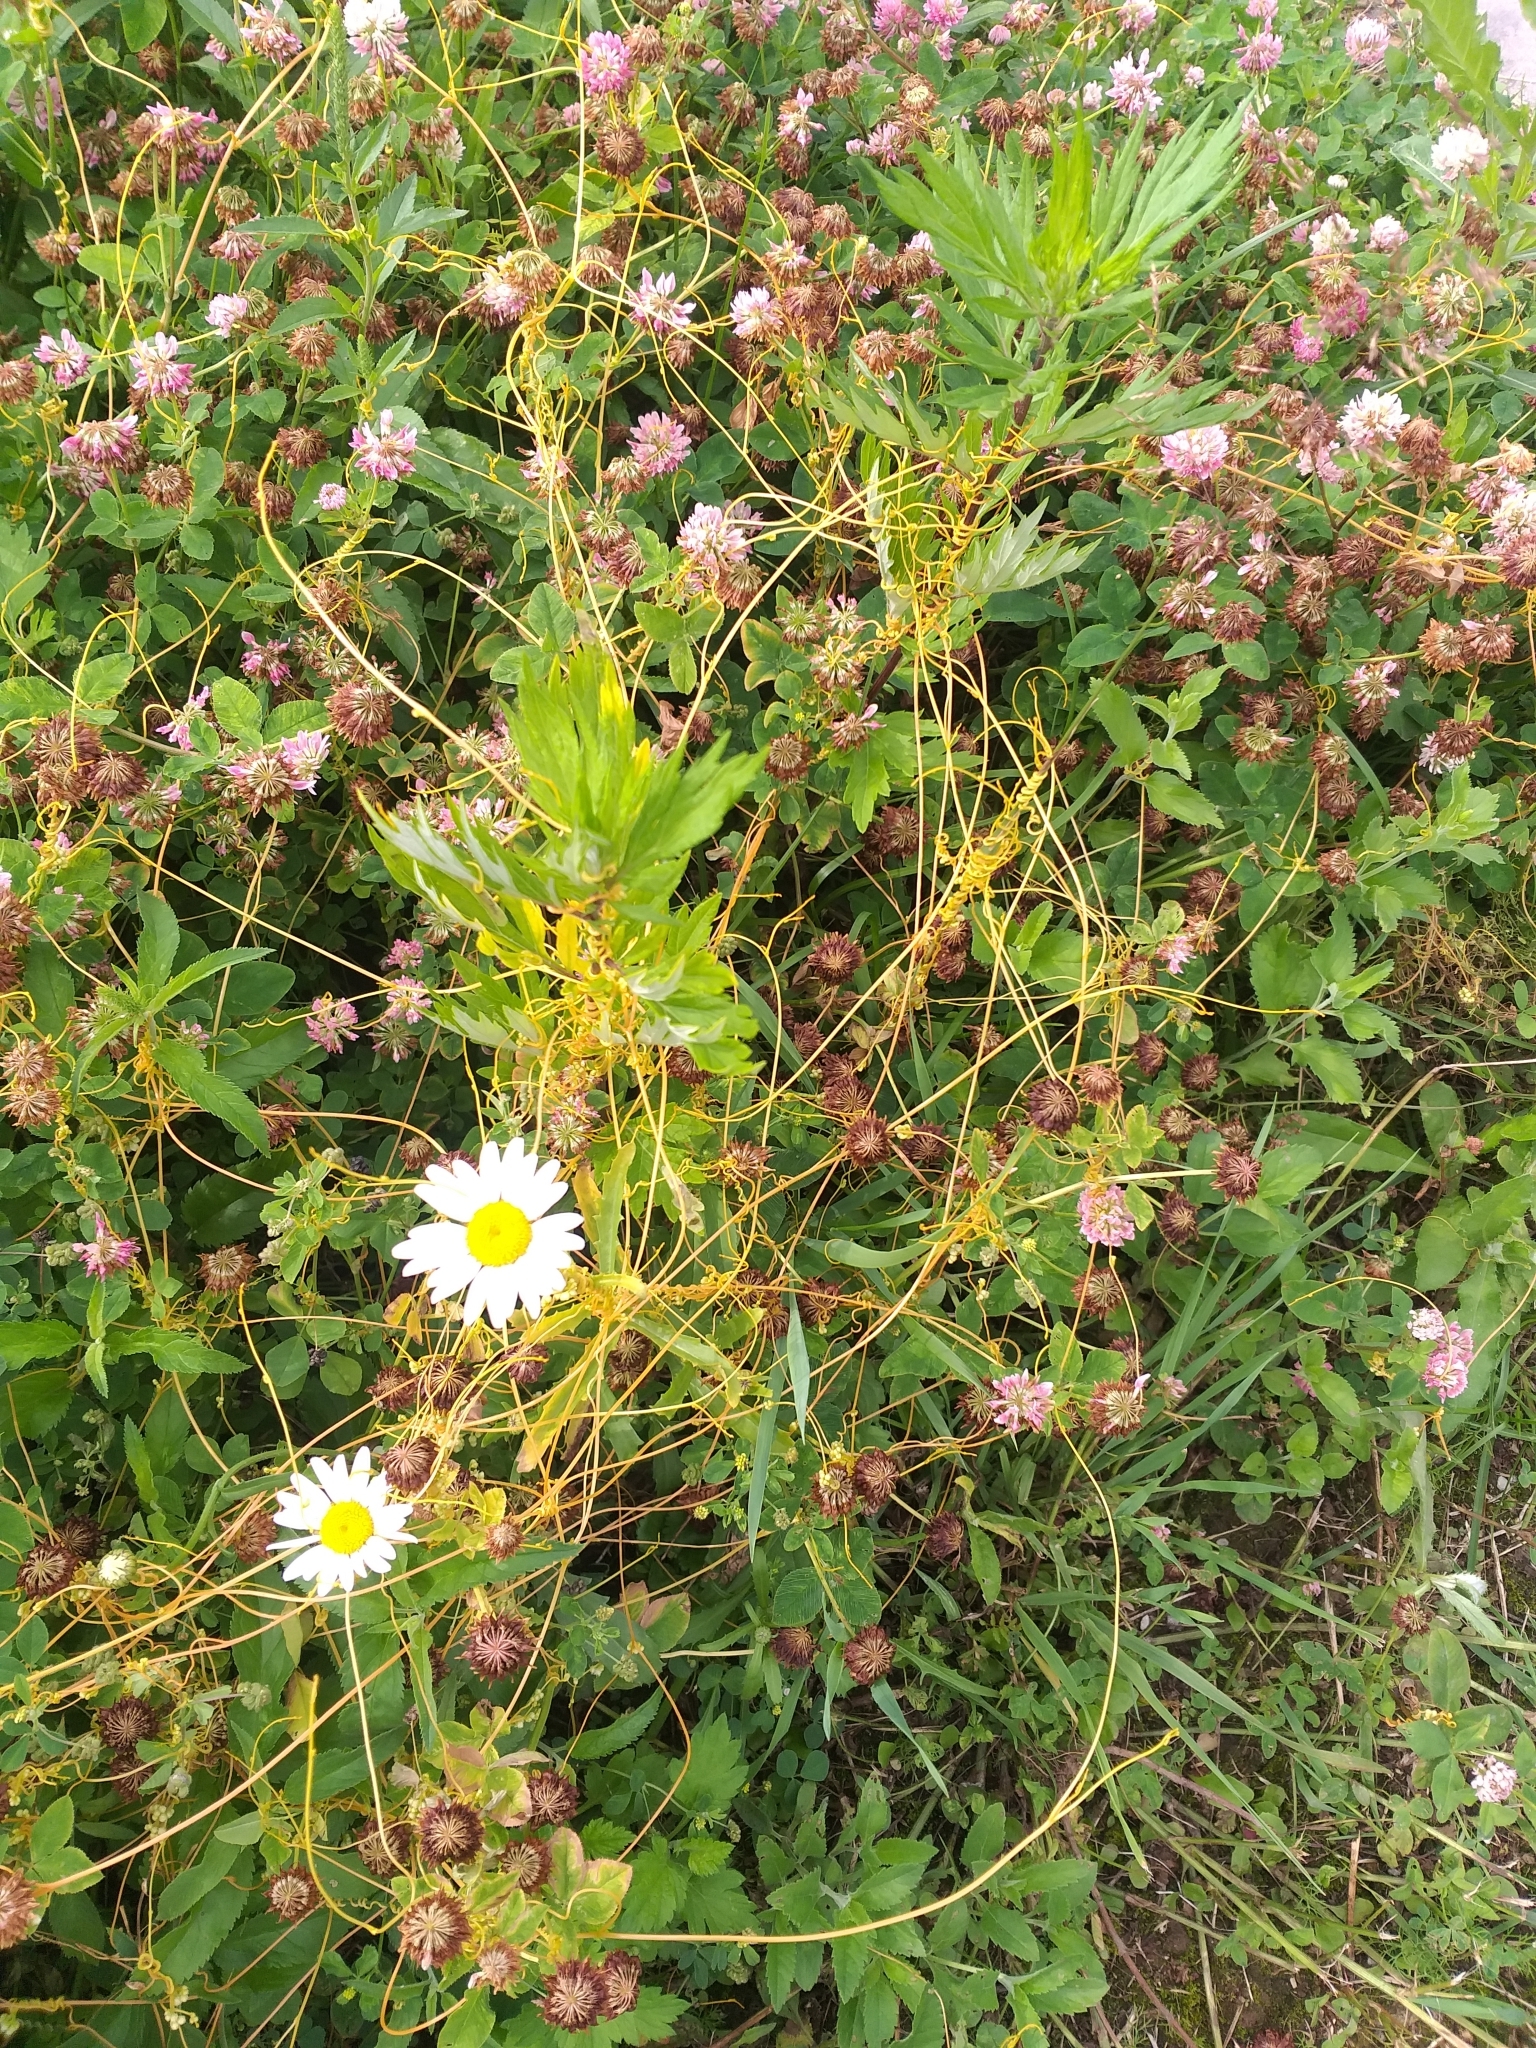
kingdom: Plantae
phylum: Tracheophyta
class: Magnoliopsida
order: Solanales
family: Convolvulaceae
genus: Cuscuta
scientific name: Cuscuta campestris
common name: Yellow dodder
